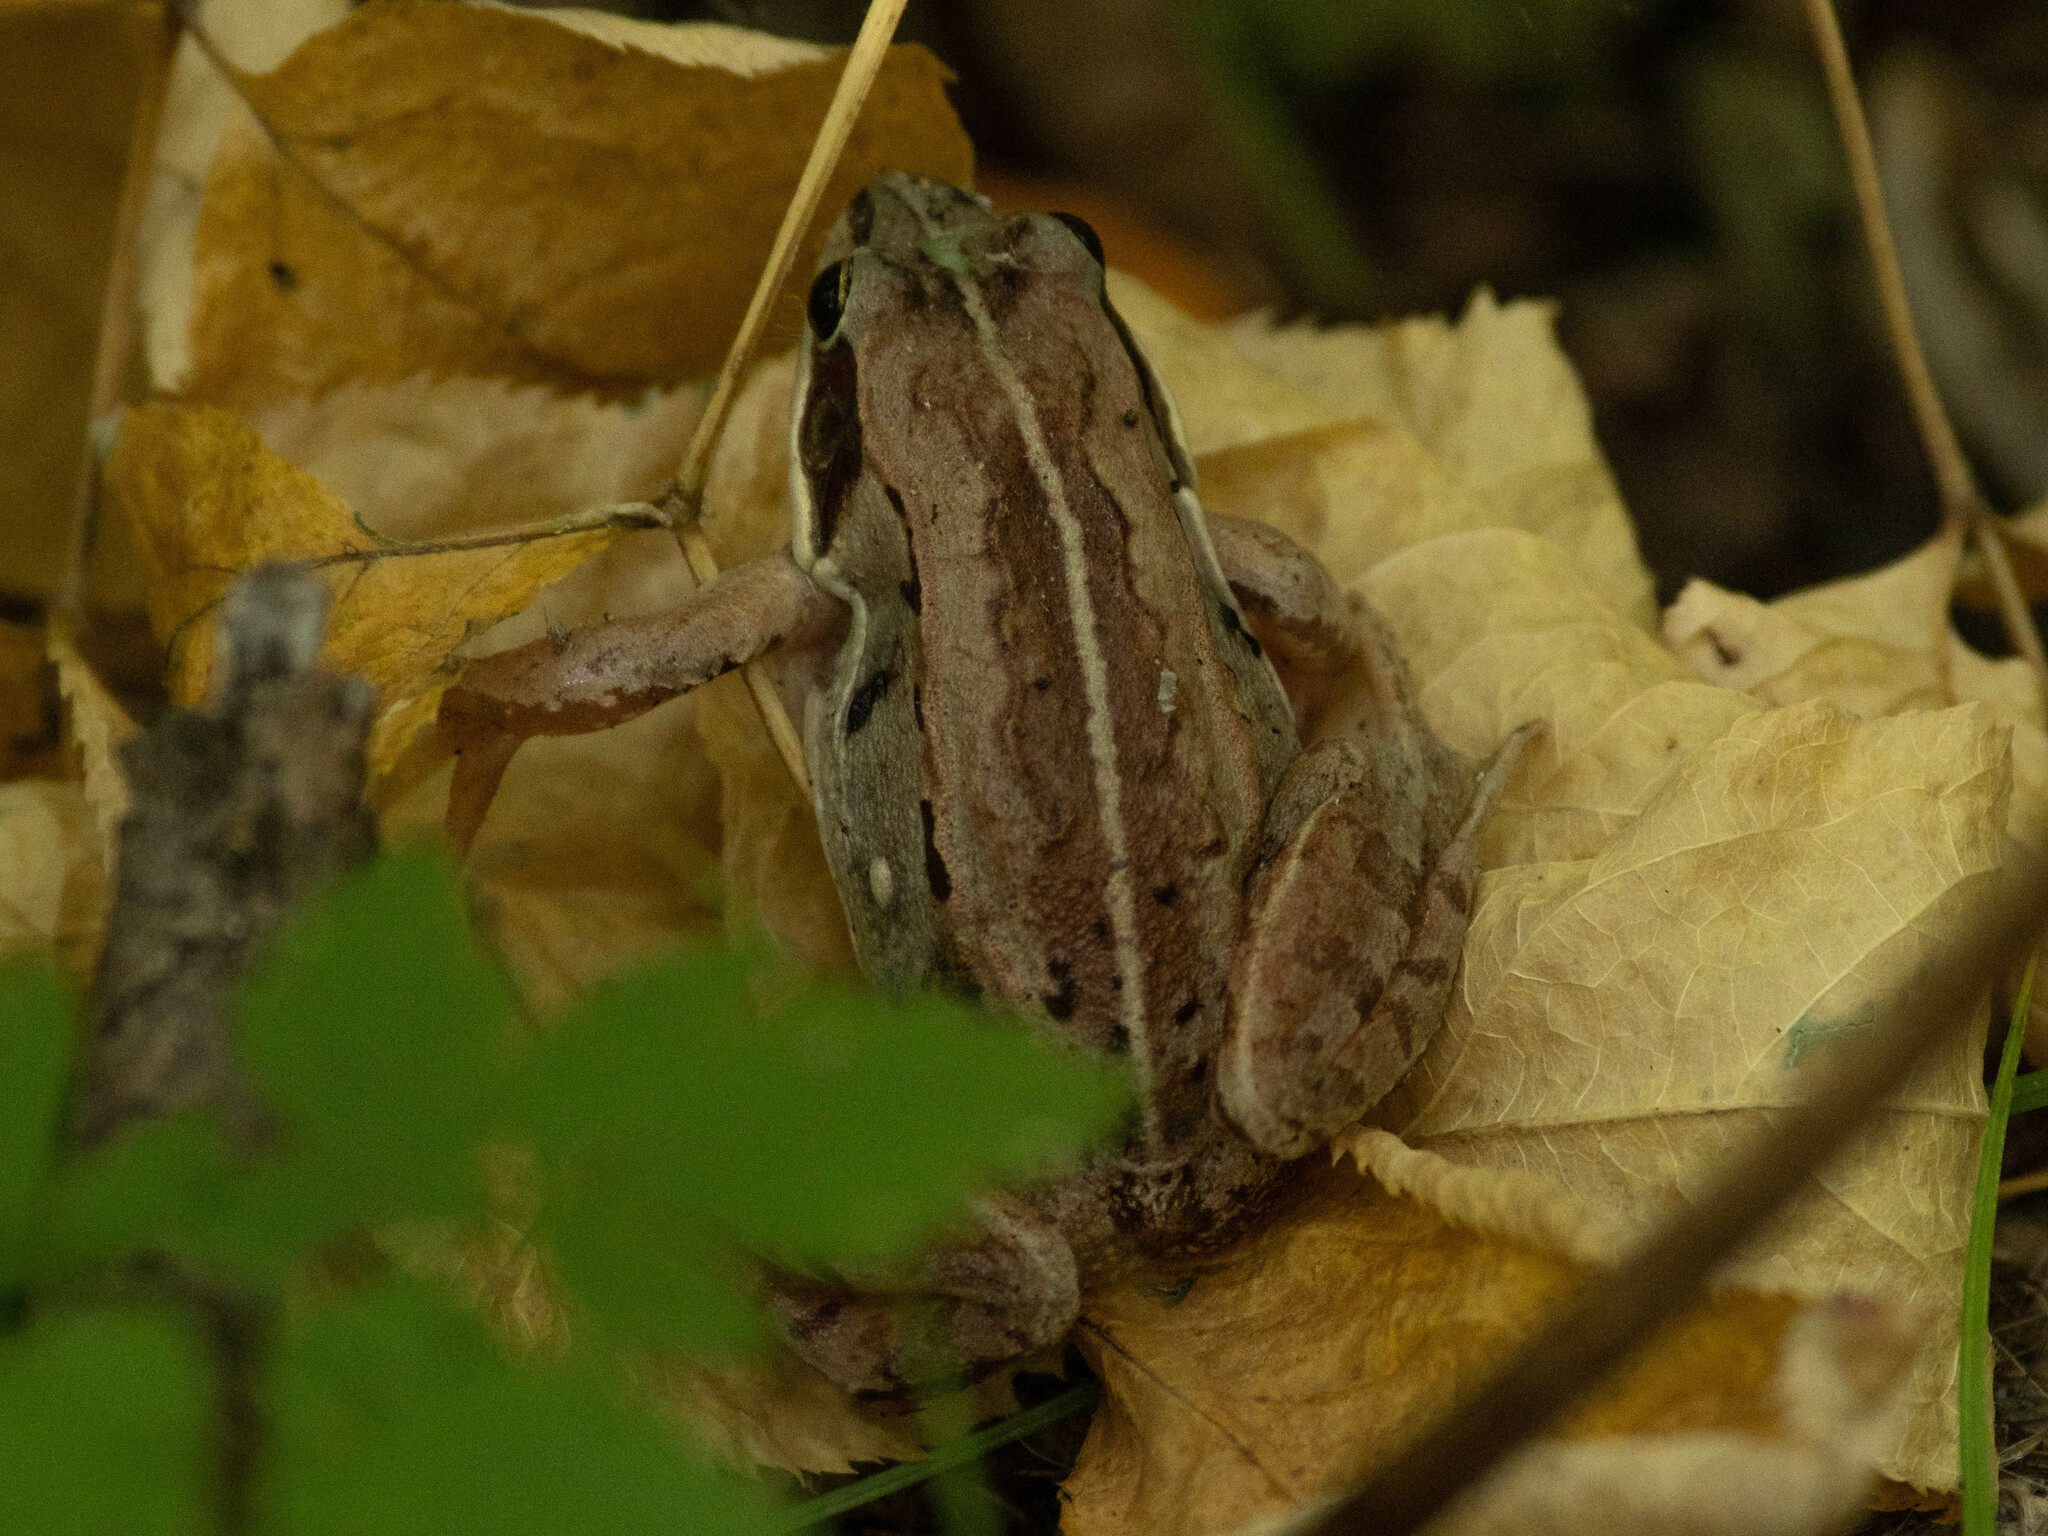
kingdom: Animalia
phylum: Chordata
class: Amphibia
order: Anura
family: Ranidae
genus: Lithobates
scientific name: Lithobates sylvaticus
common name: Wood frog
